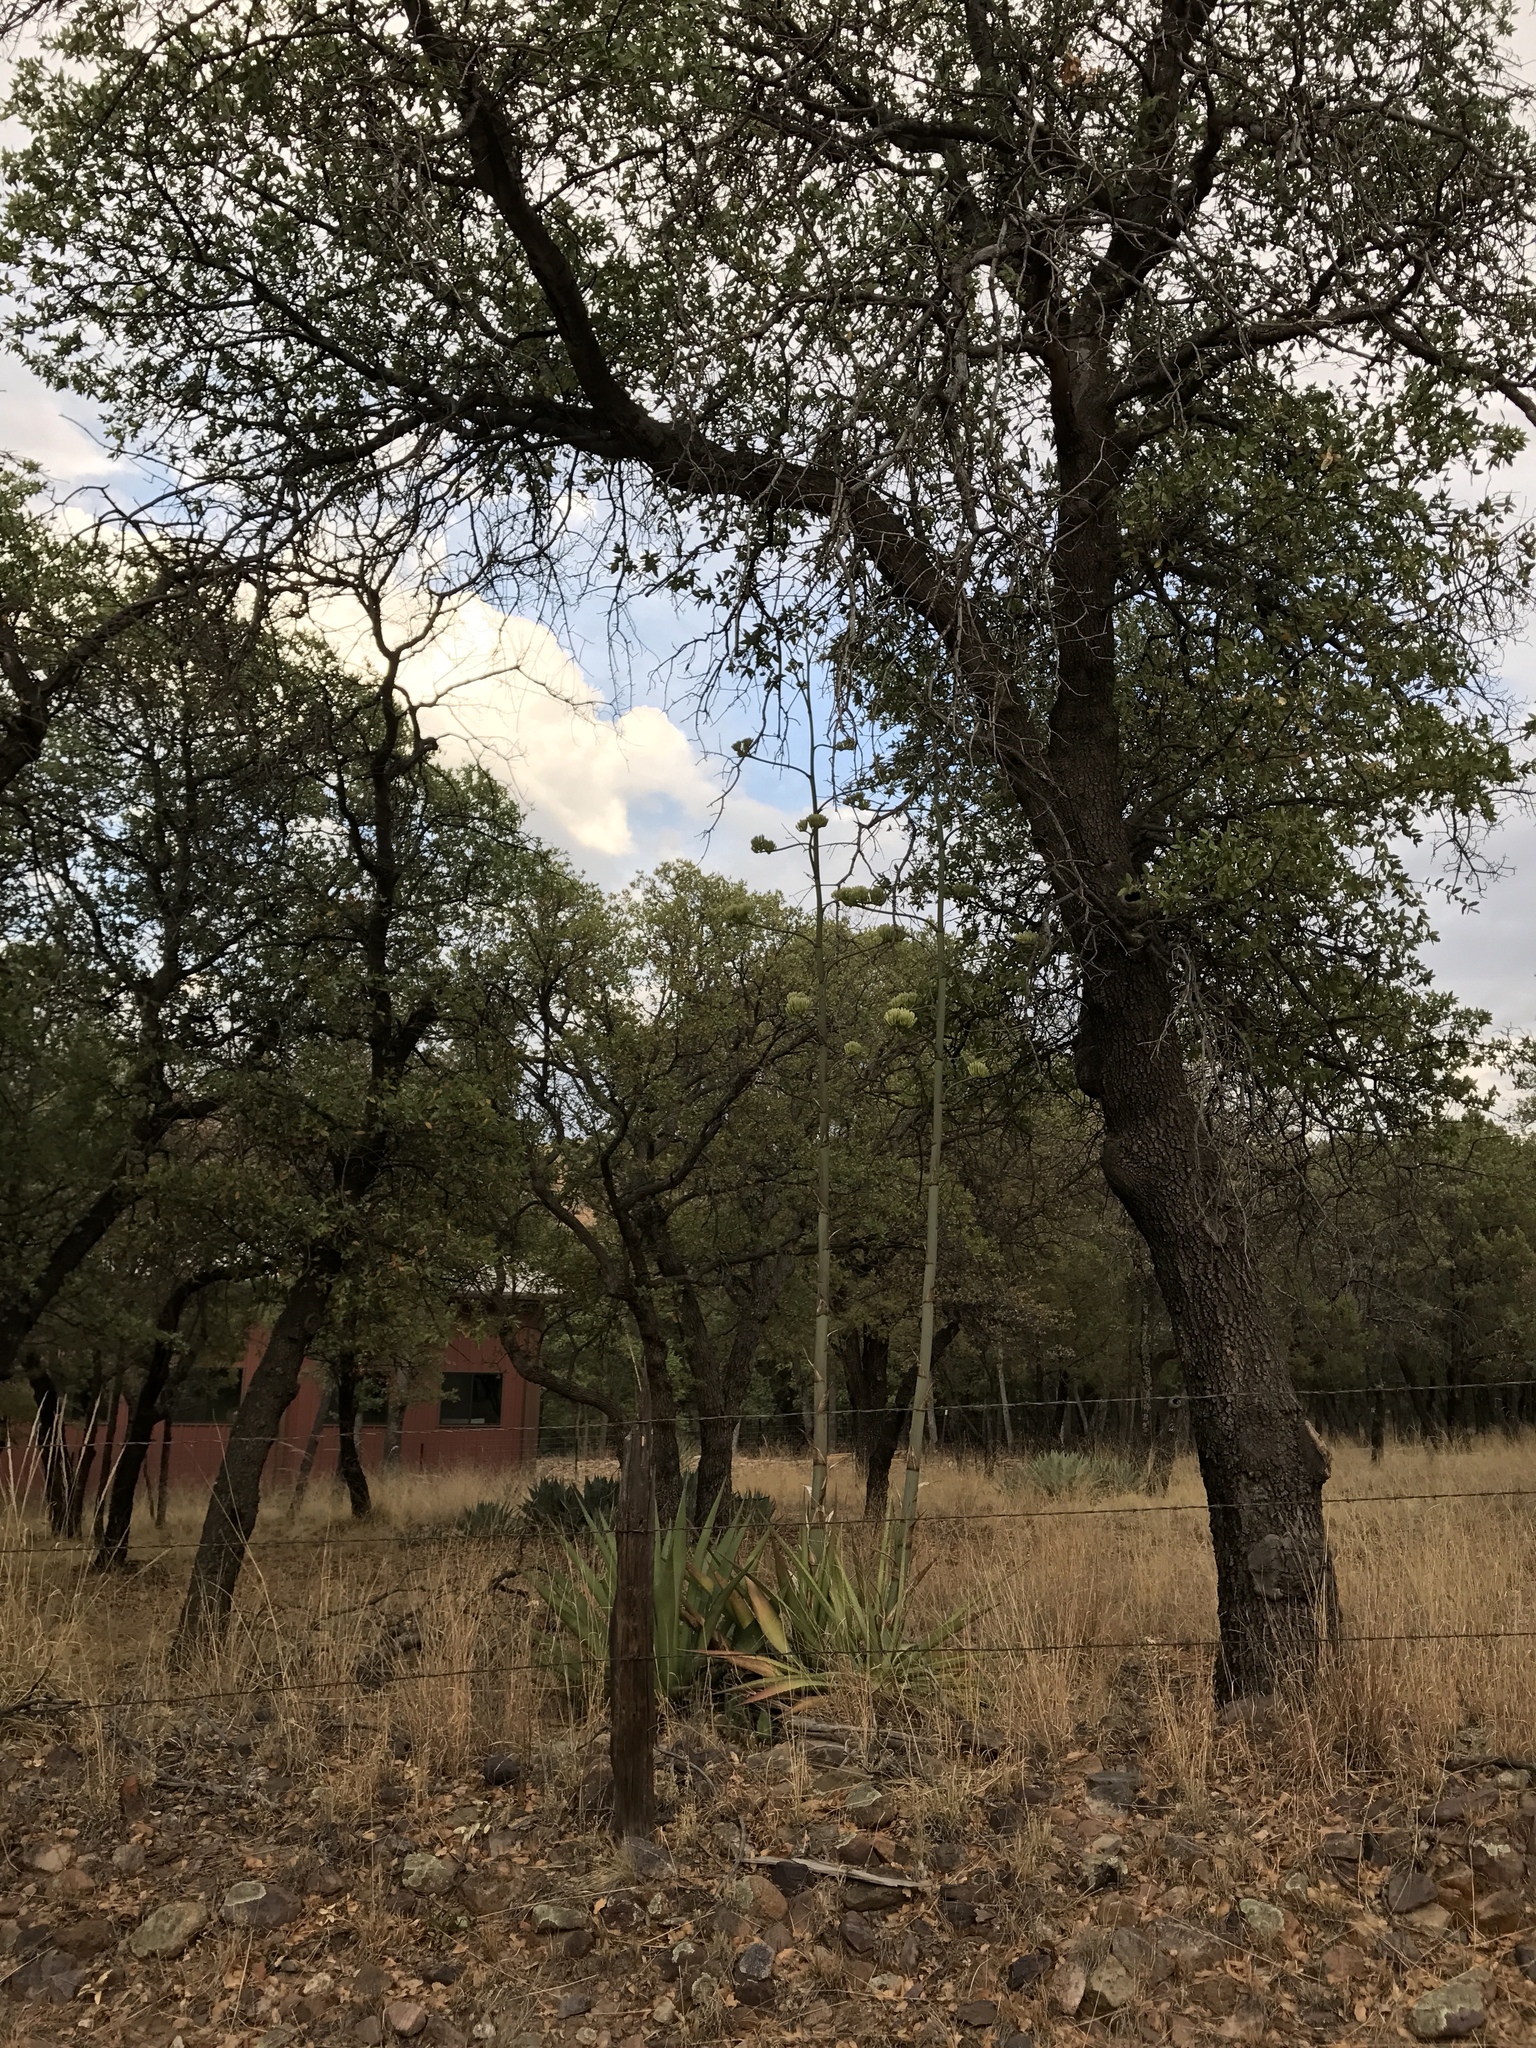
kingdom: Plantae
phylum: Tracheophyta
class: Liliopsida
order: Asparagales
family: Asparagaceae
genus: Agave
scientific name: Agave palmeri
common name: Palmer agave
